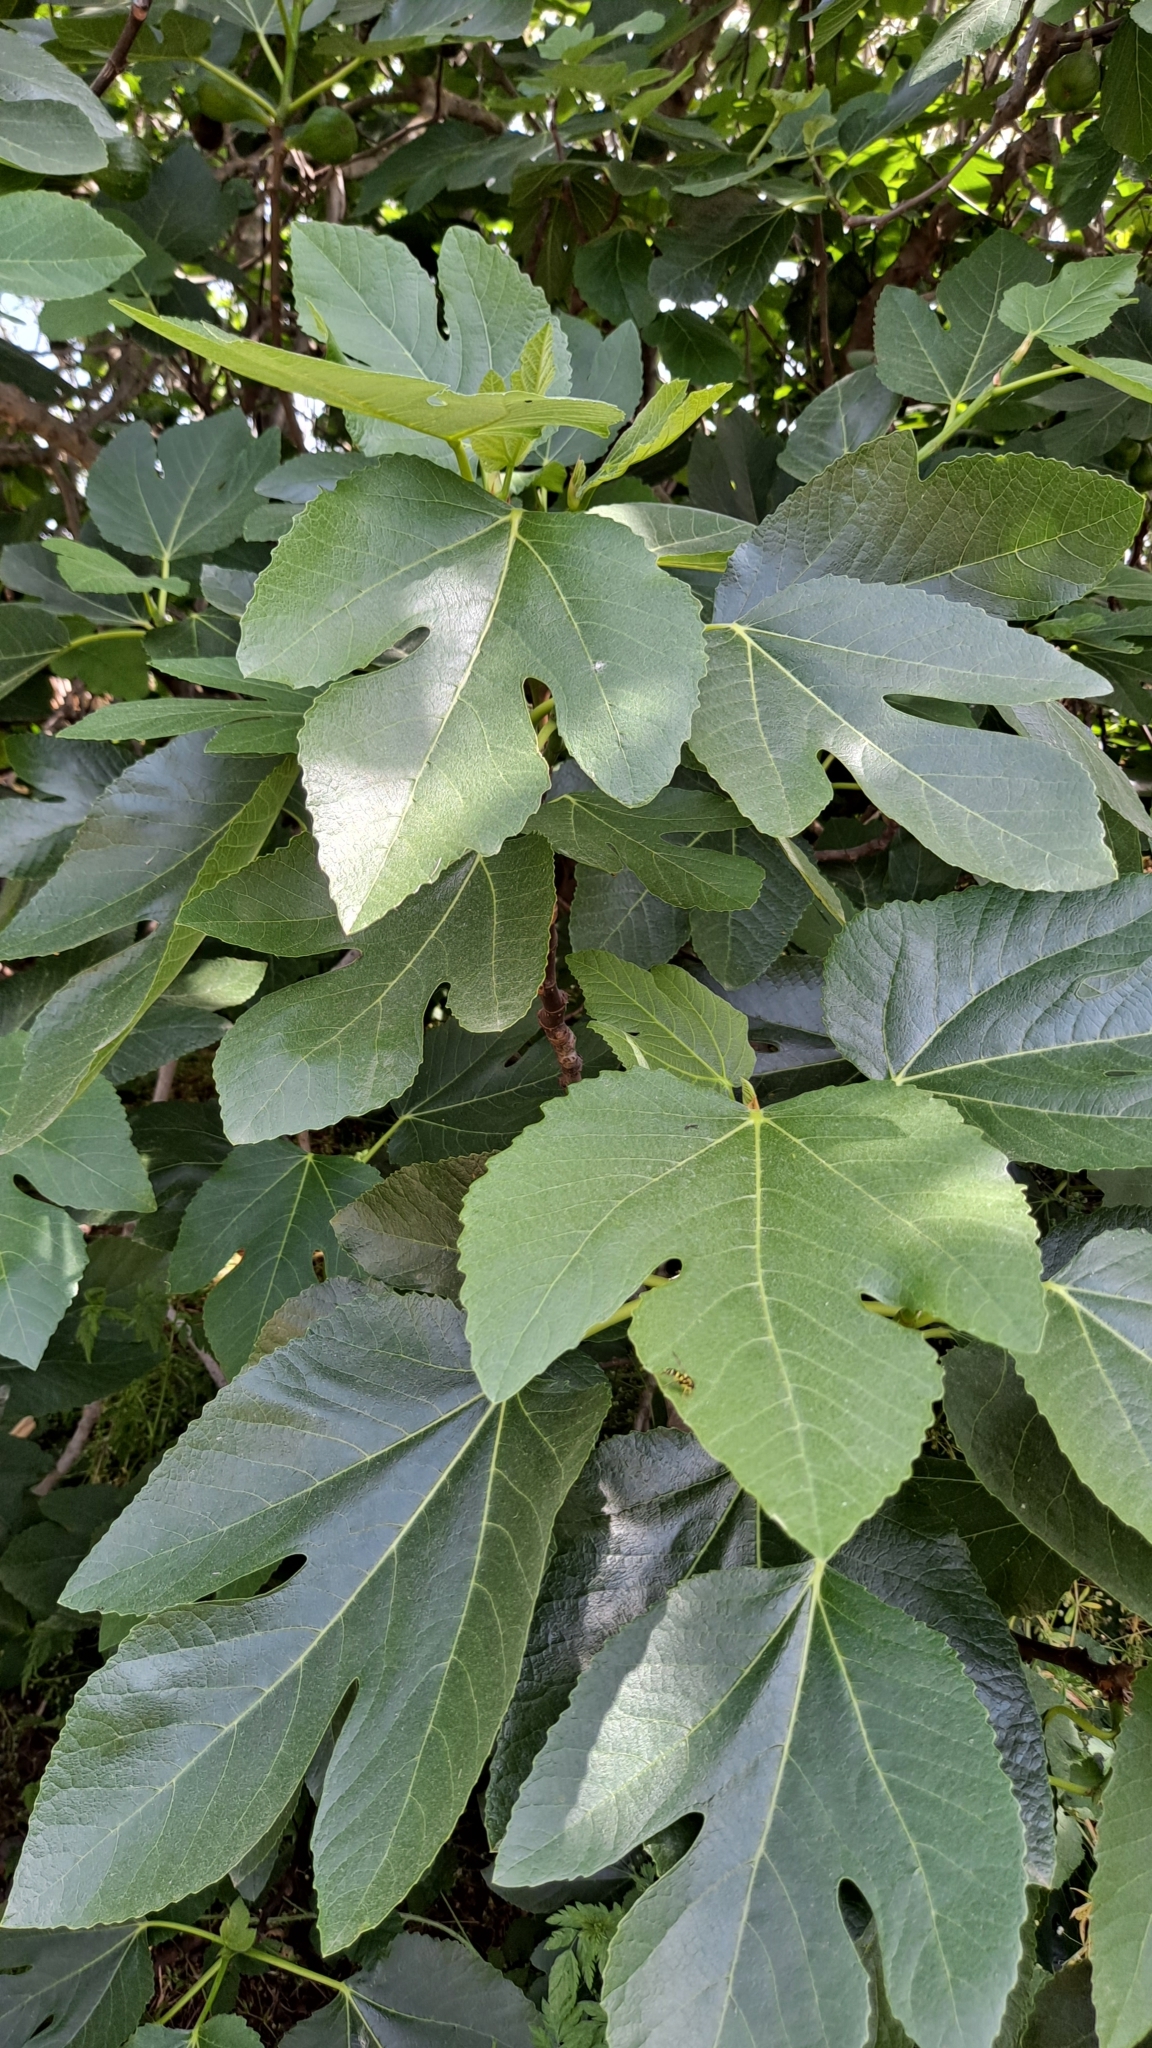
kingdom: Plantae
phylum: Tracheophyta
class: Magnoliopsida
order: Rosales
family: Moraceae
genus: Ficus
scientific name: Ficus carica
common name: Fig
